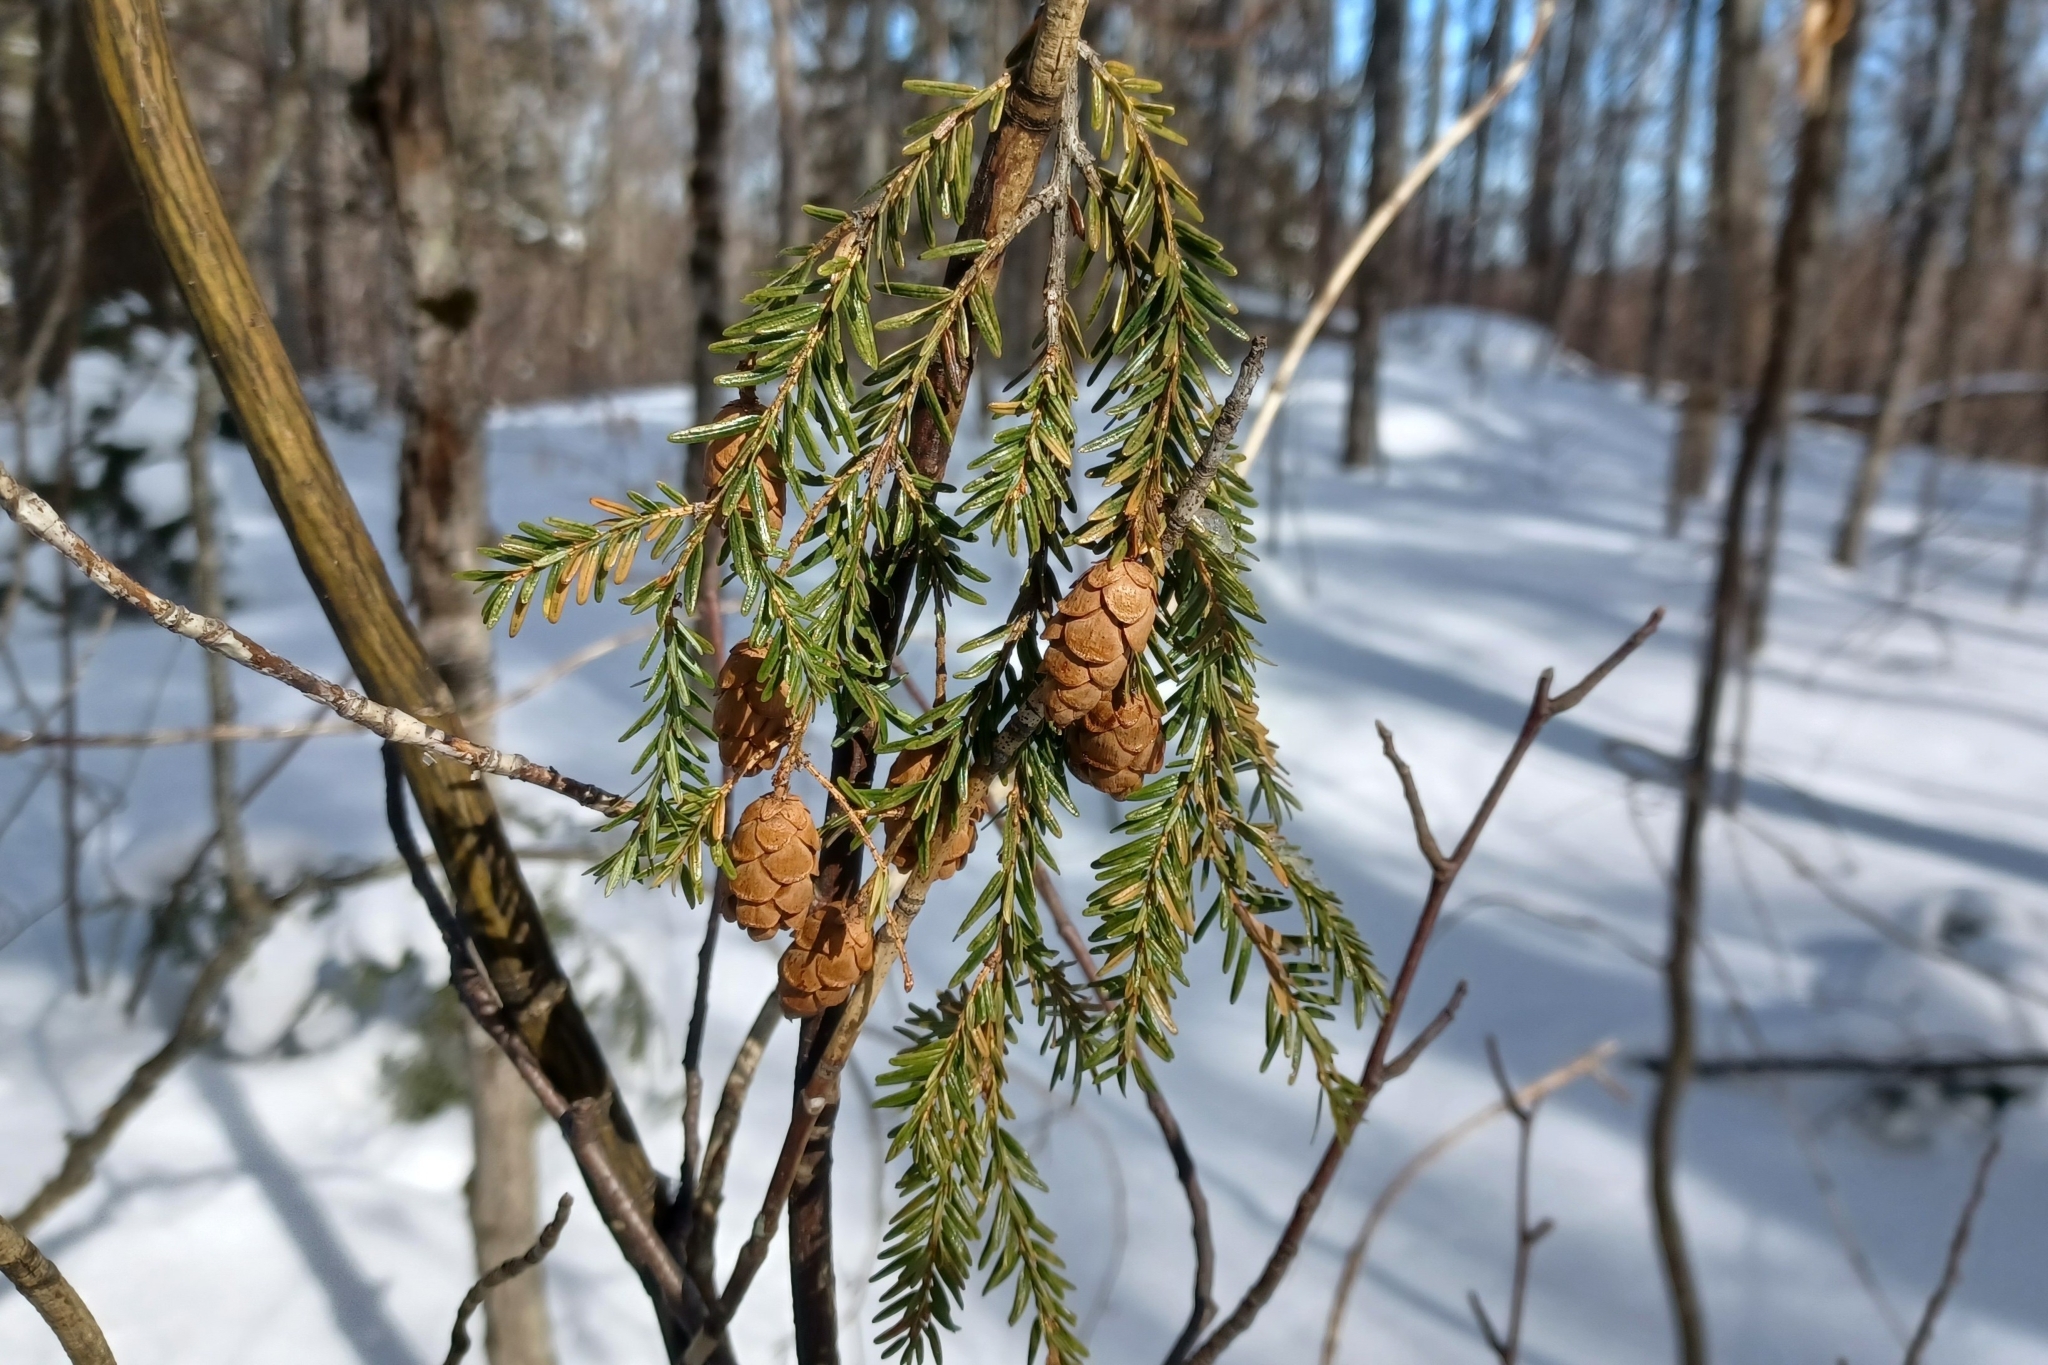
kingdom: Plantae
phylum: Tracheophyta
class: Pinopsida
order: Pinales
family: Pinaceae
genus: Tsuga
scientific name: Tsuga canadensis
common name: Eastern hemlock
